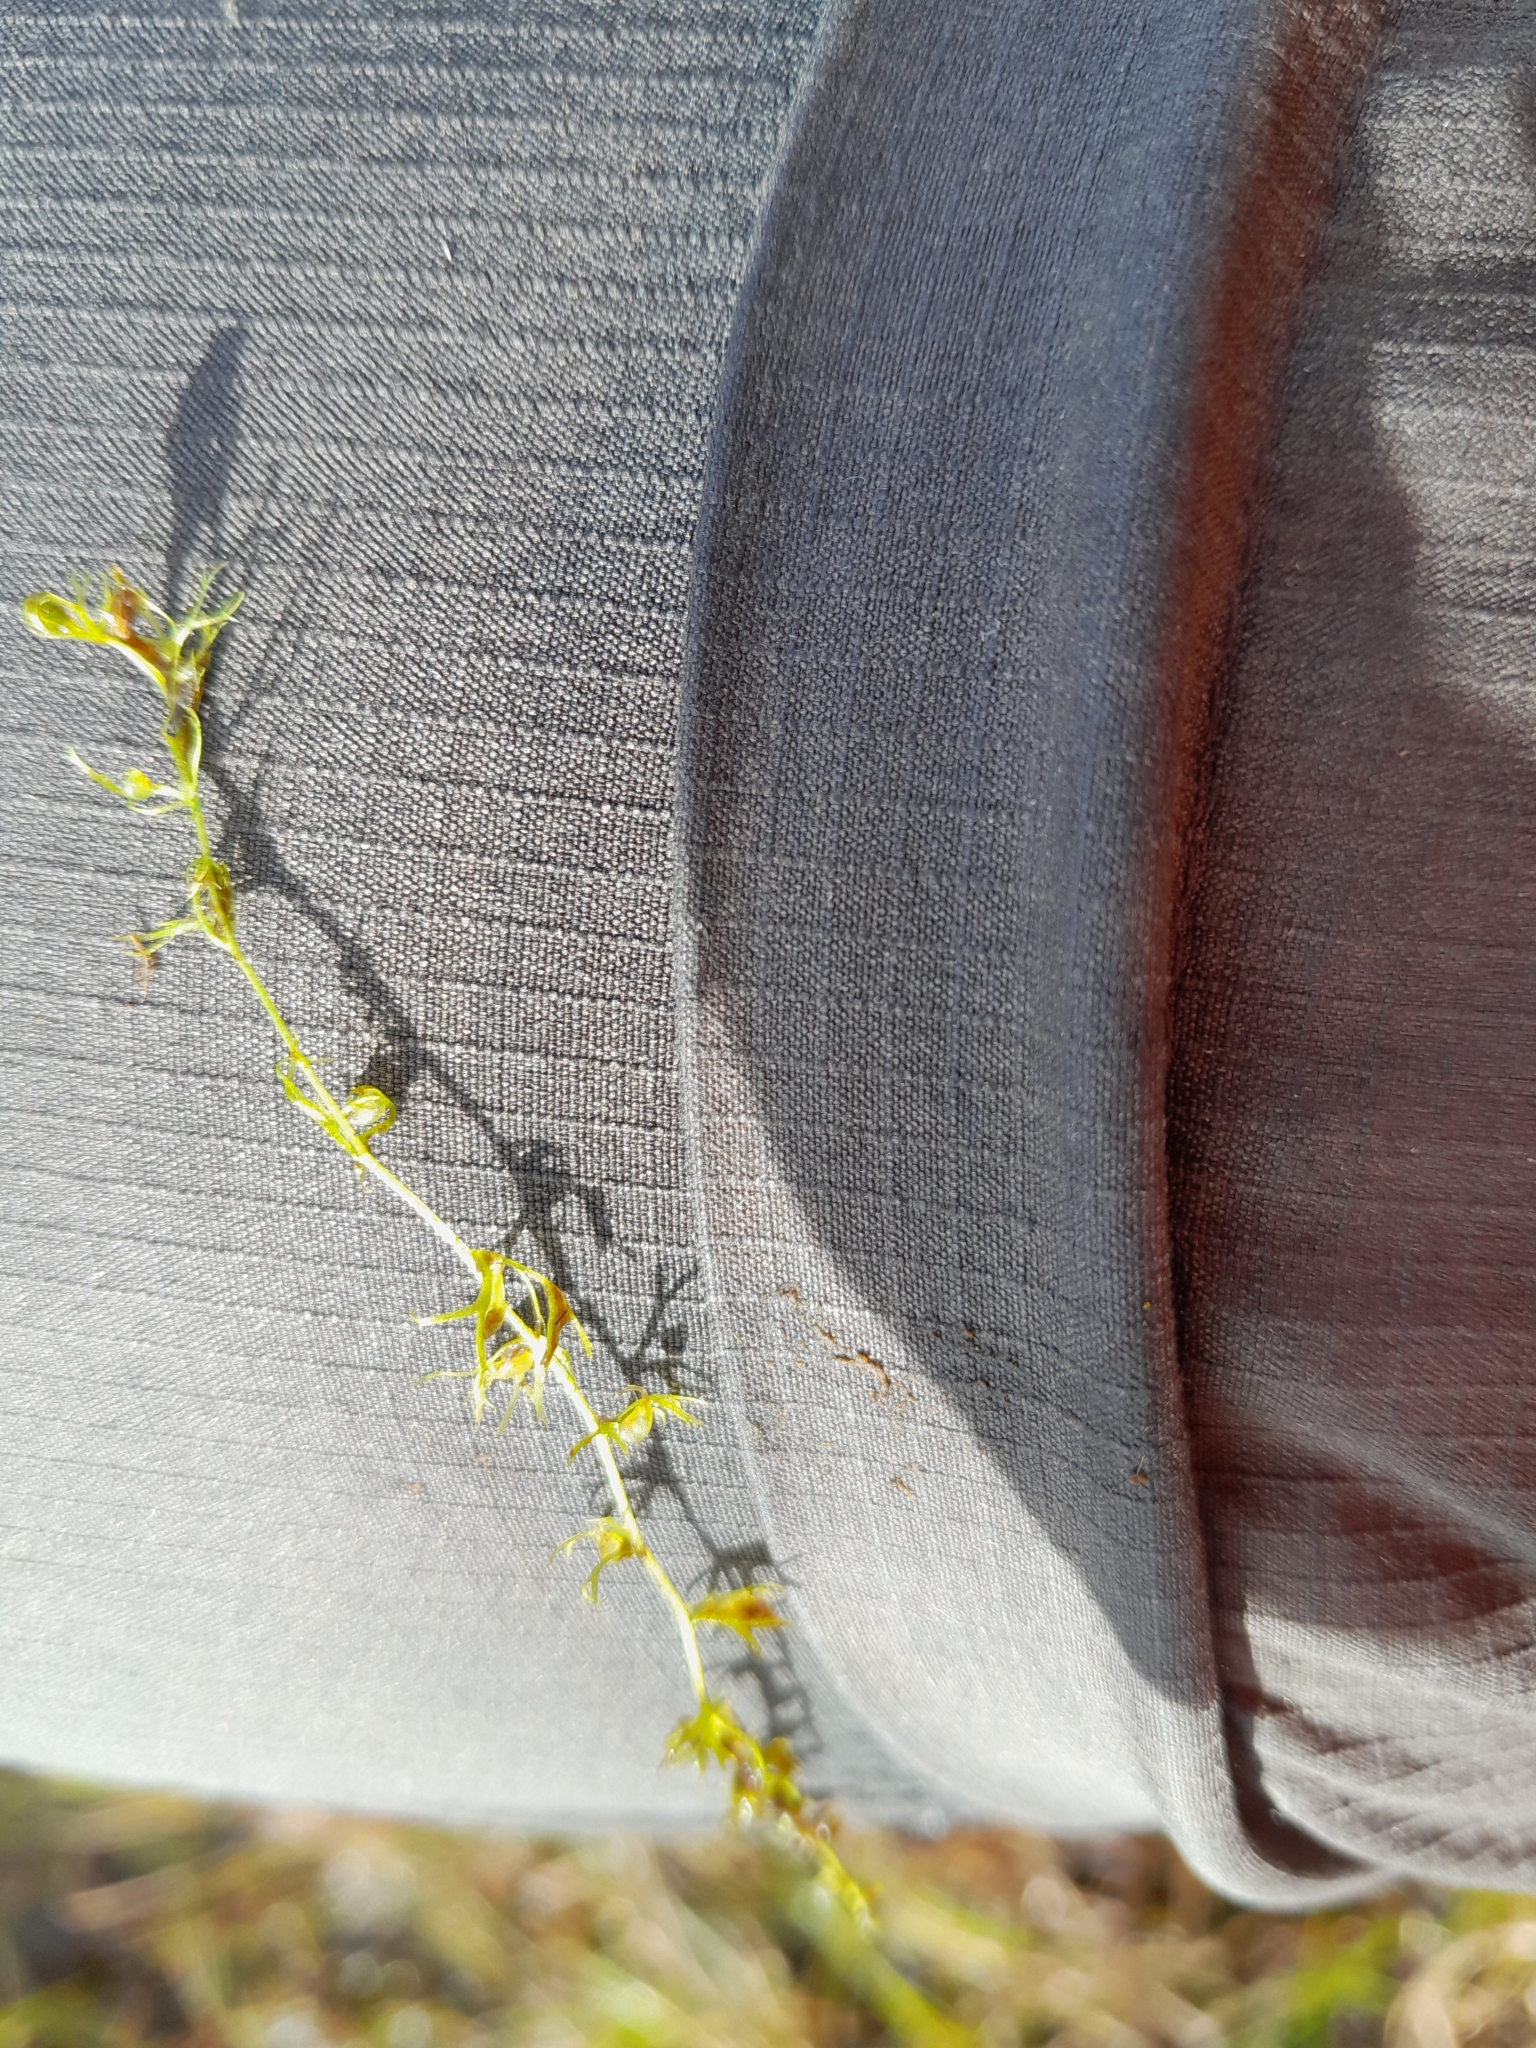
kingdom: Plantae
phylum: Tracheophyta
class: Magnoliopsida
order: Lamiales
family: Lentibulariaceae
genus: Utricularia
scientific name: Utricularia minor
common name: Lesser bladderwort
